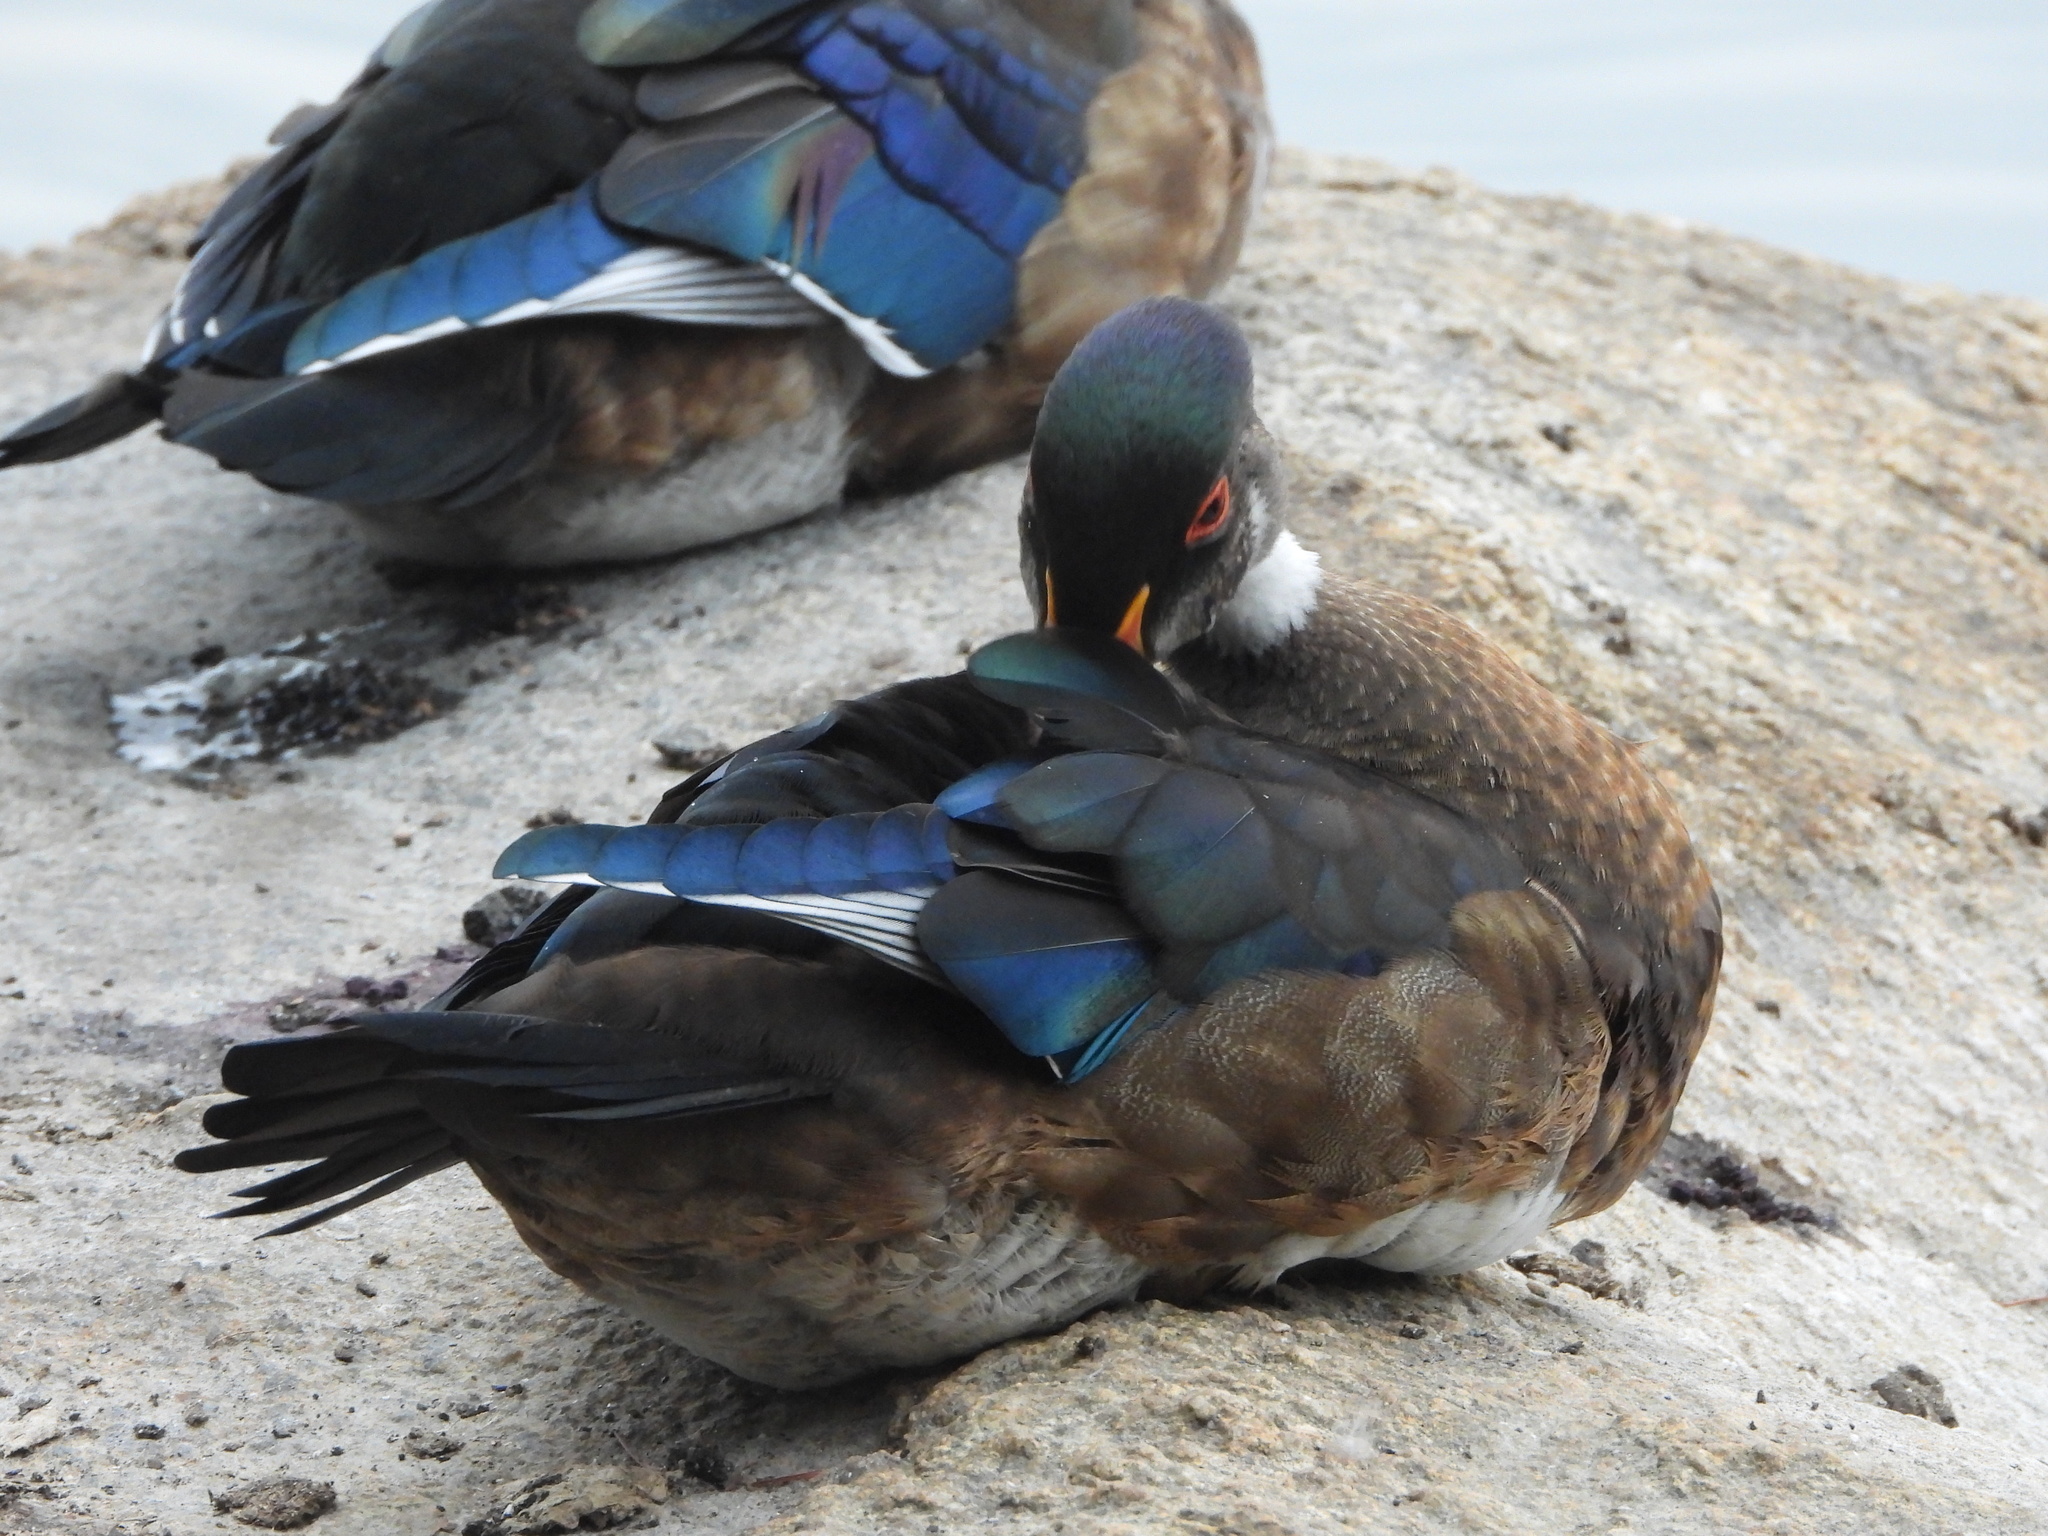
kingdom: Animalia
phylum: Chordata
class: Aves
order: Anseriformes
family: Anatidae
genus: Aix
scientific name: Aix sponsa
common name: Wood duck
